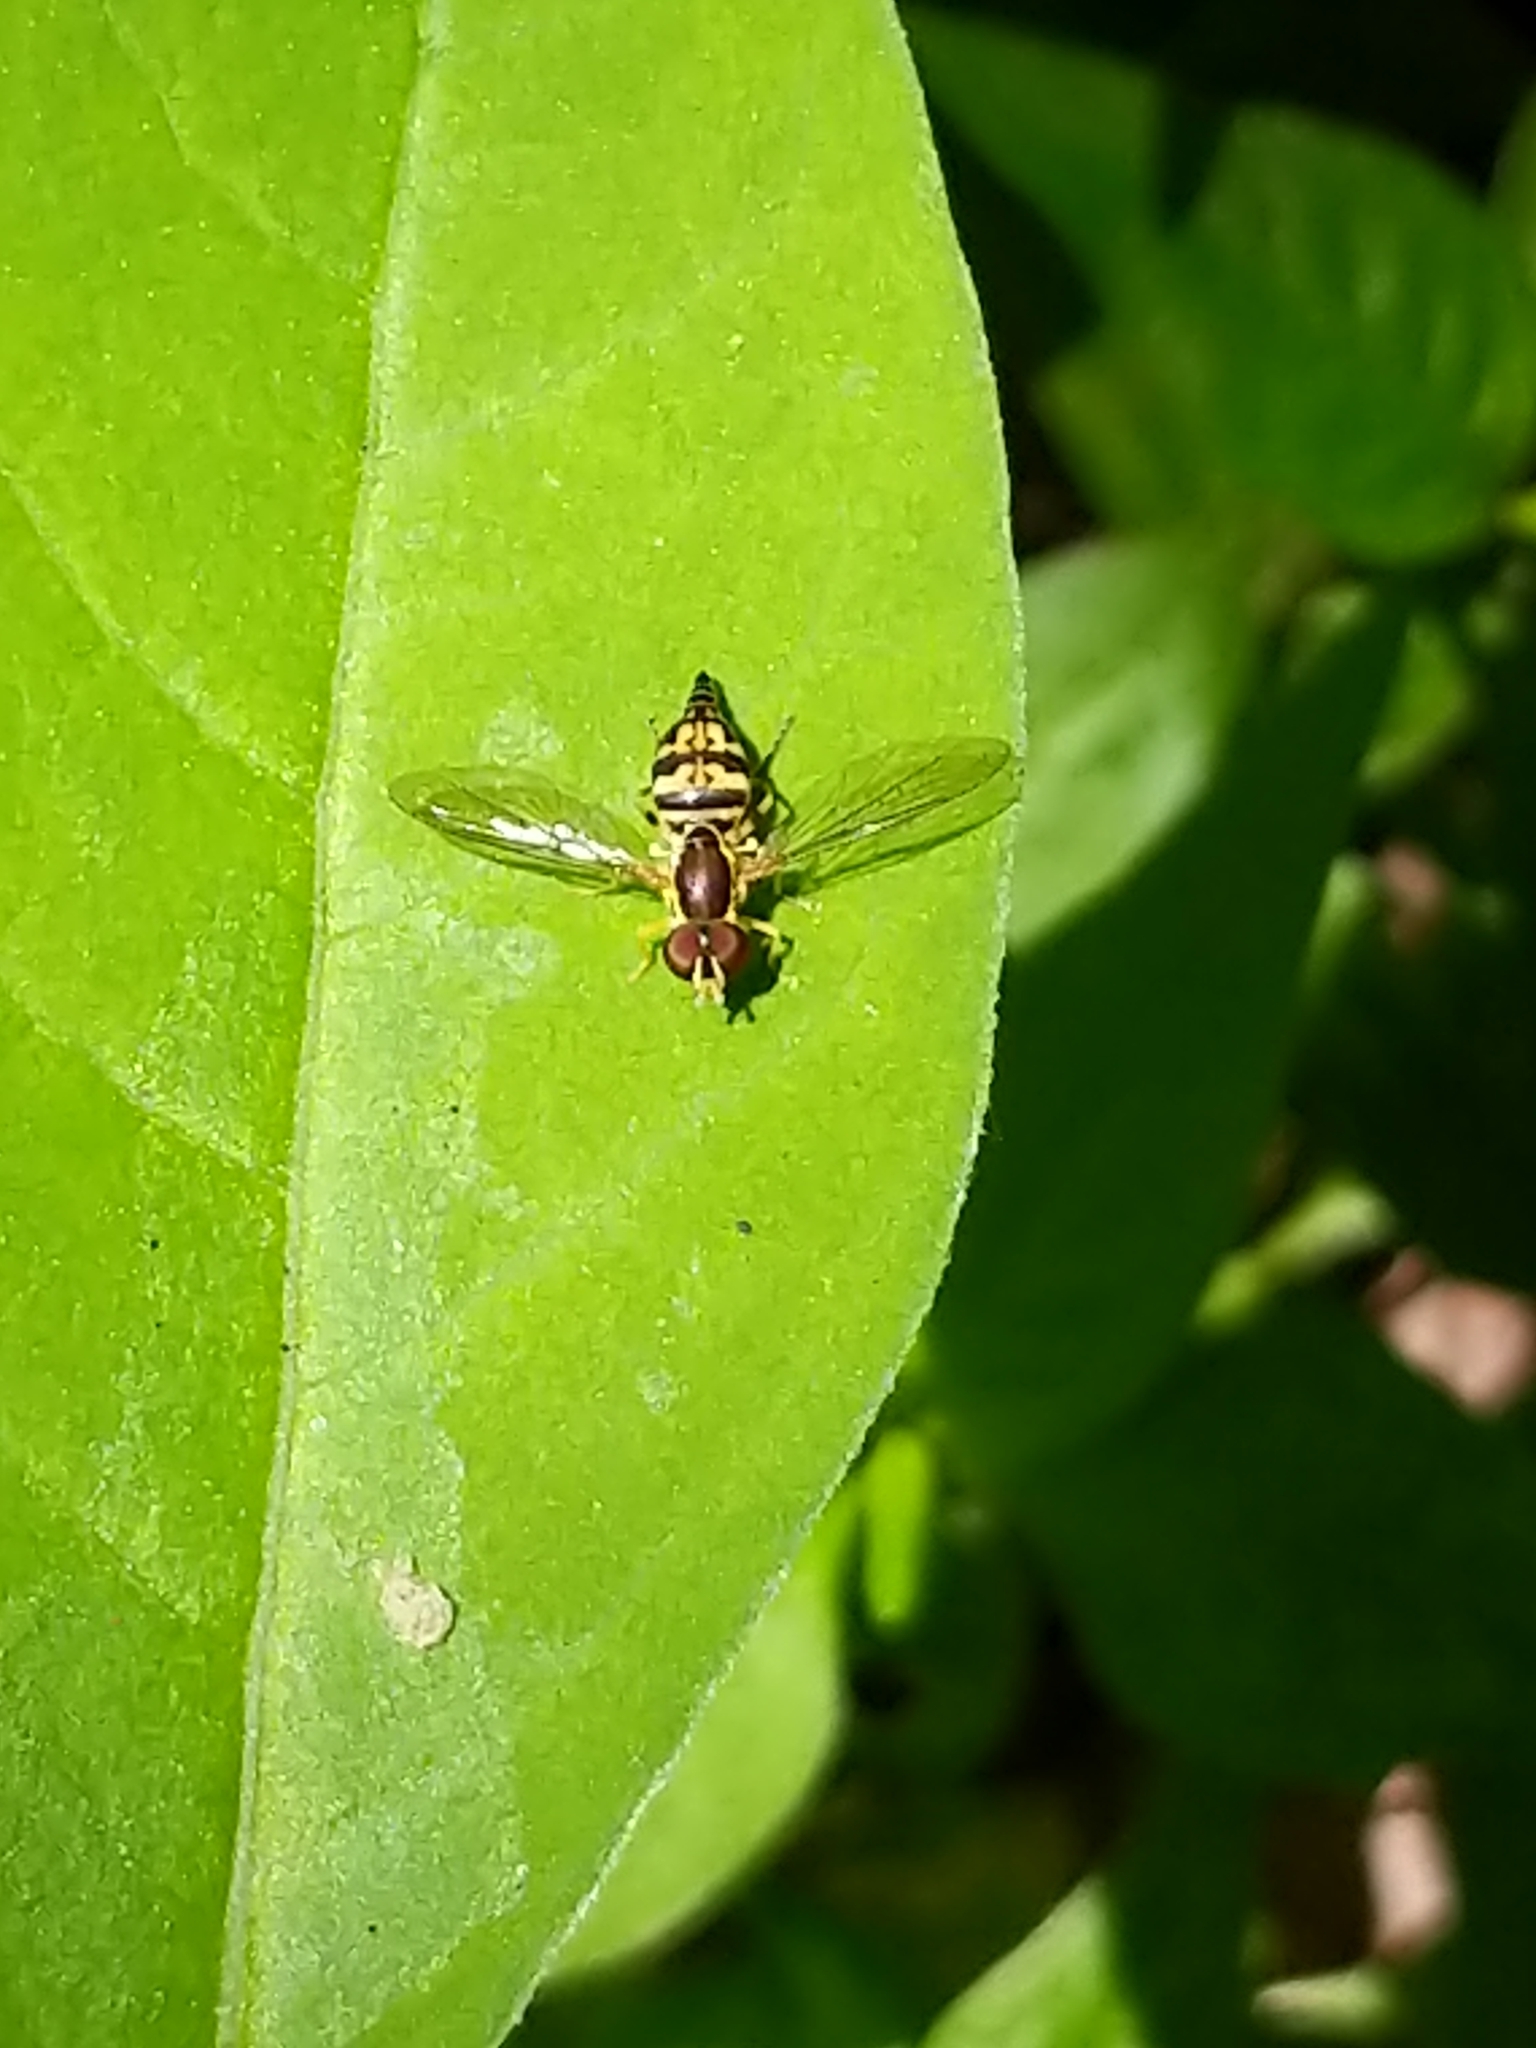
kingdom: Animalia
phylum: Arthropoda
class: Insecta
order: Diptera
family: Syrphidae
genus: Toxomerus
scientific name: Toxomerus geminatus
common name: Eastern calligrapher
